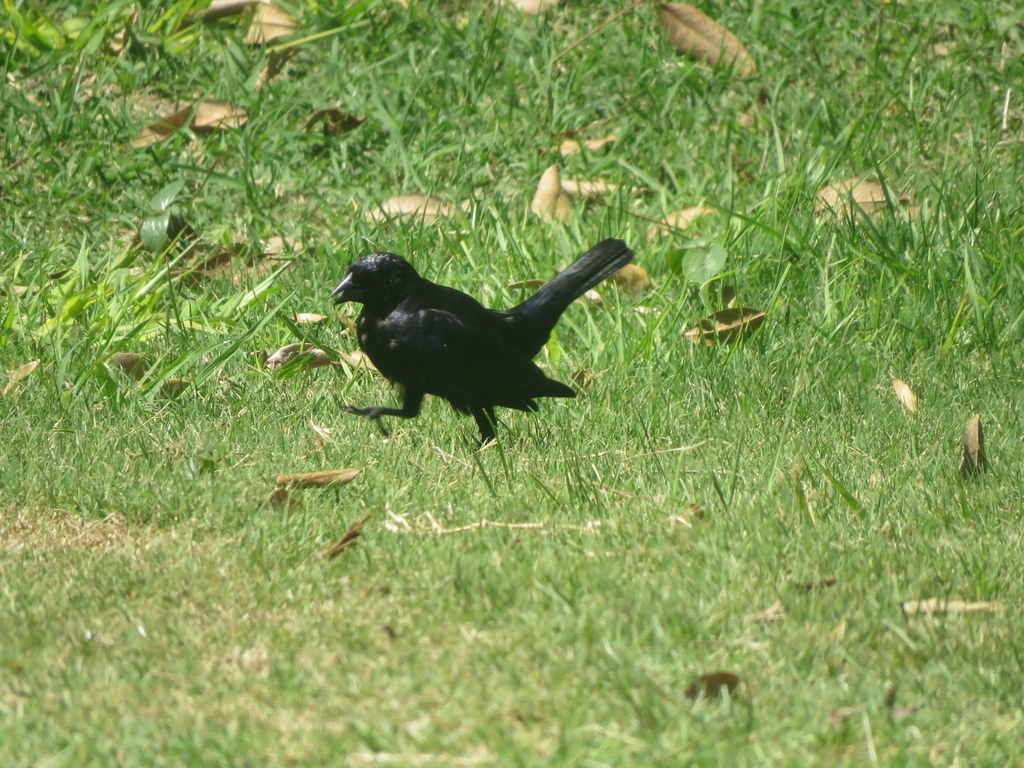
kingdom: Animalia
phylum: Chordata
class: Aves
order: Passeriformes
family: Icteridae
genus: Molothrus
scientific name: Molothrus bonariensis
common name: Shiny cowbird
